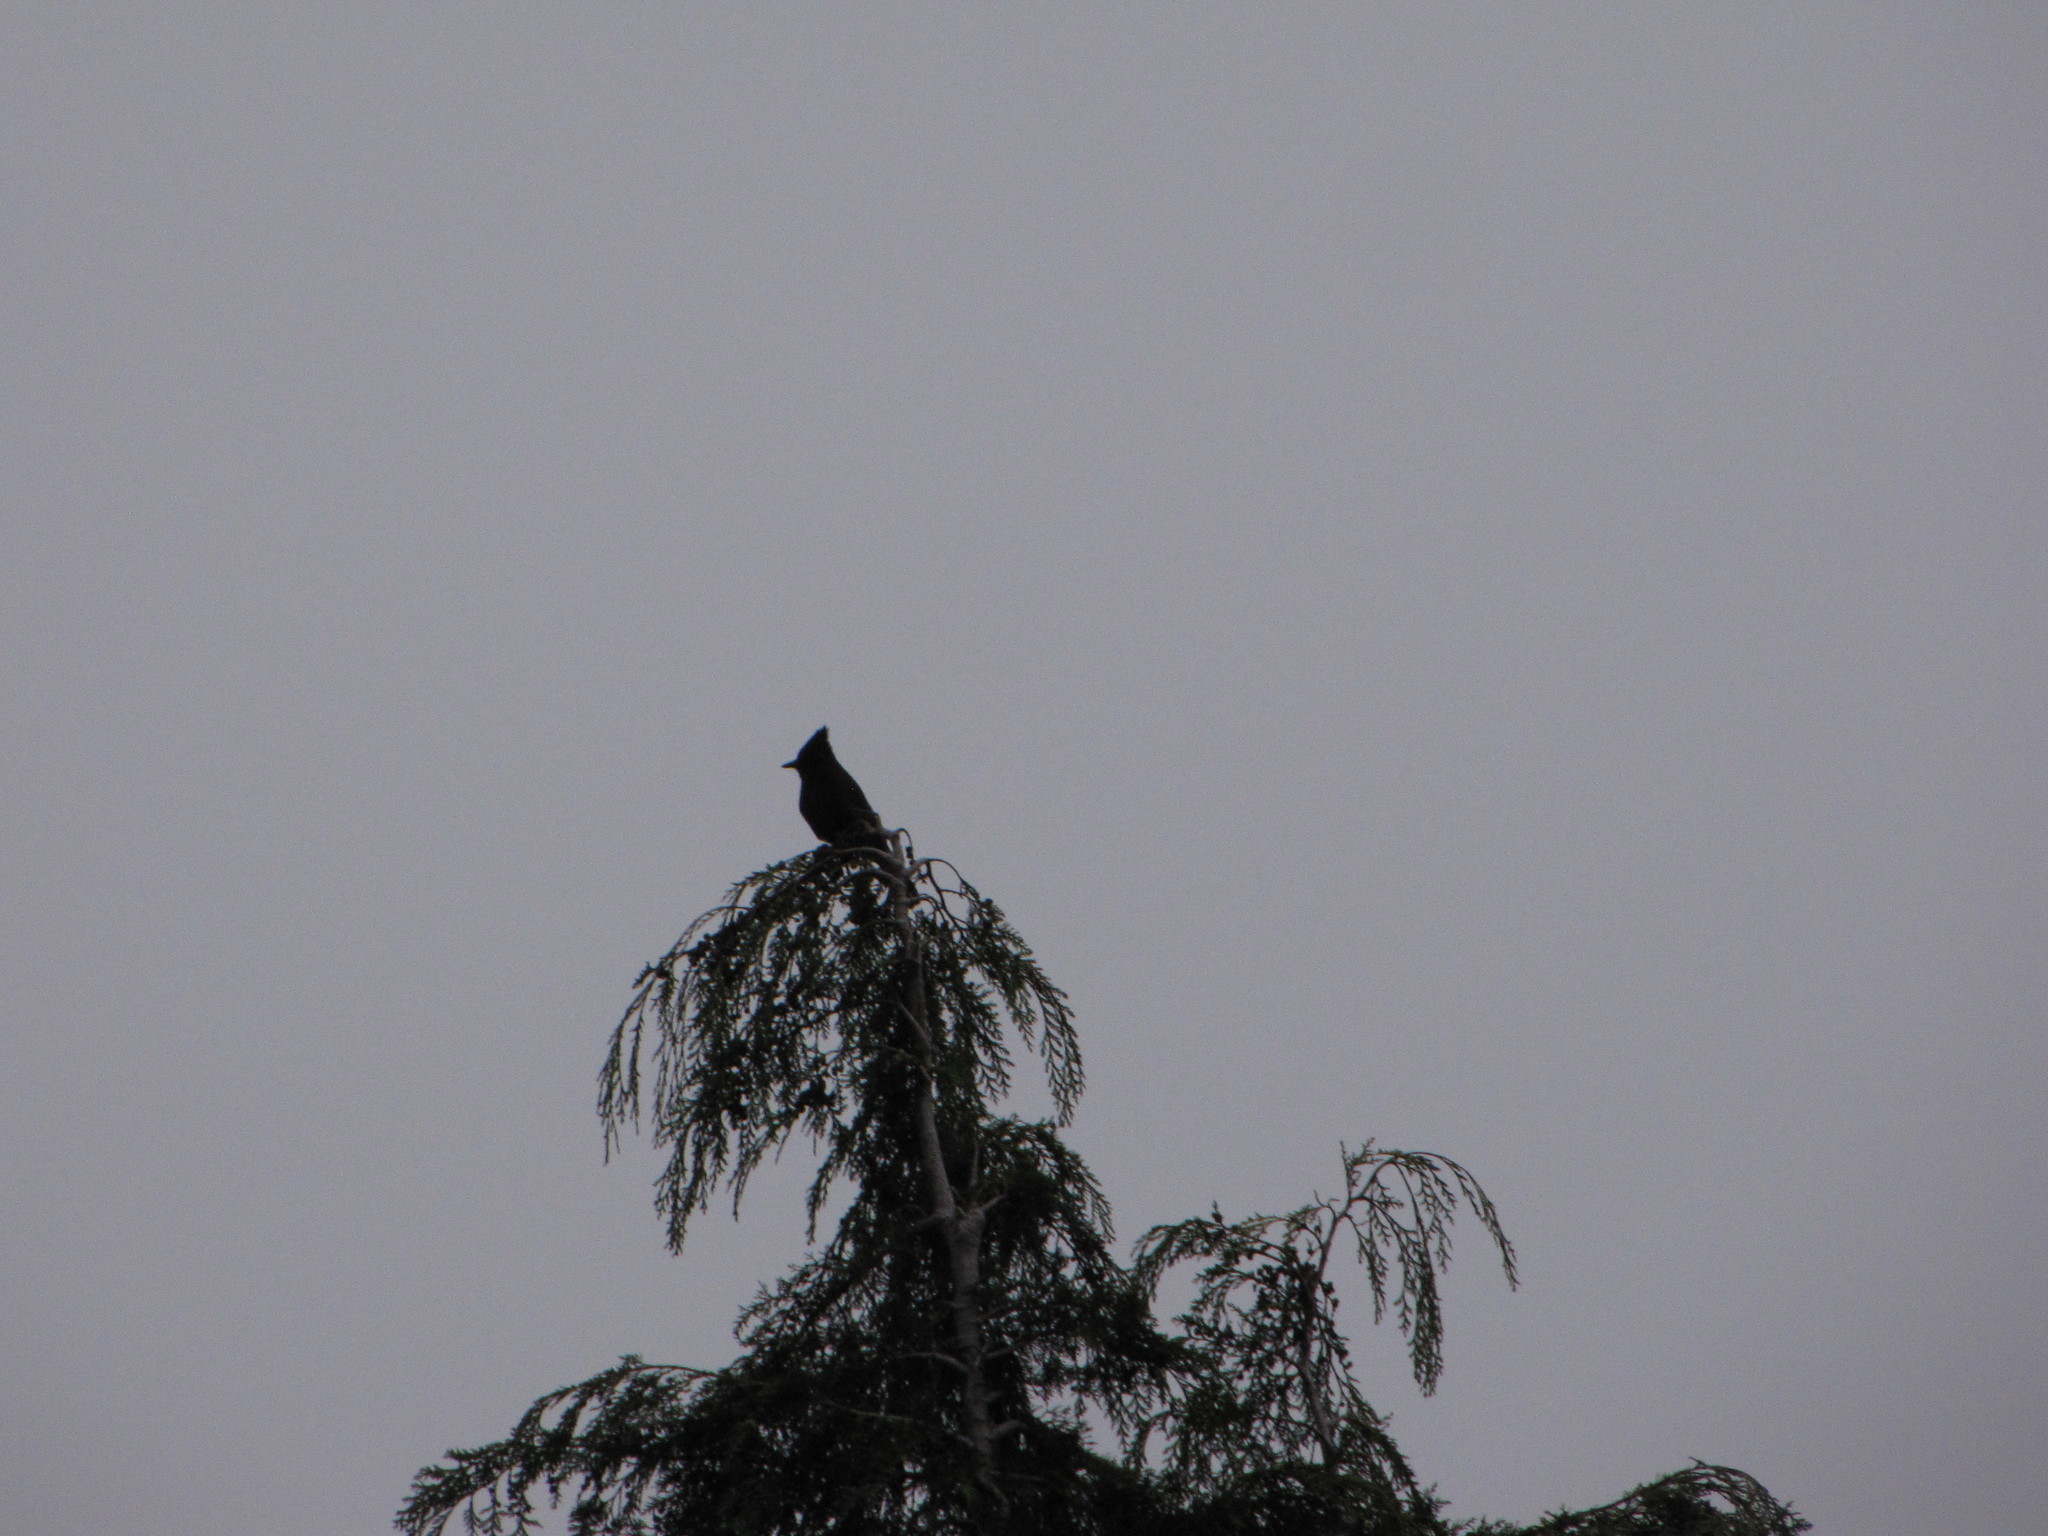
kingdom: Animalia
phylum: Chordata
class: Aves
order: Passeriformes
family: Corvidae
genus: Cyanocitta
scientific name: Cyanocitta stelleri
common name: Steller's jay
